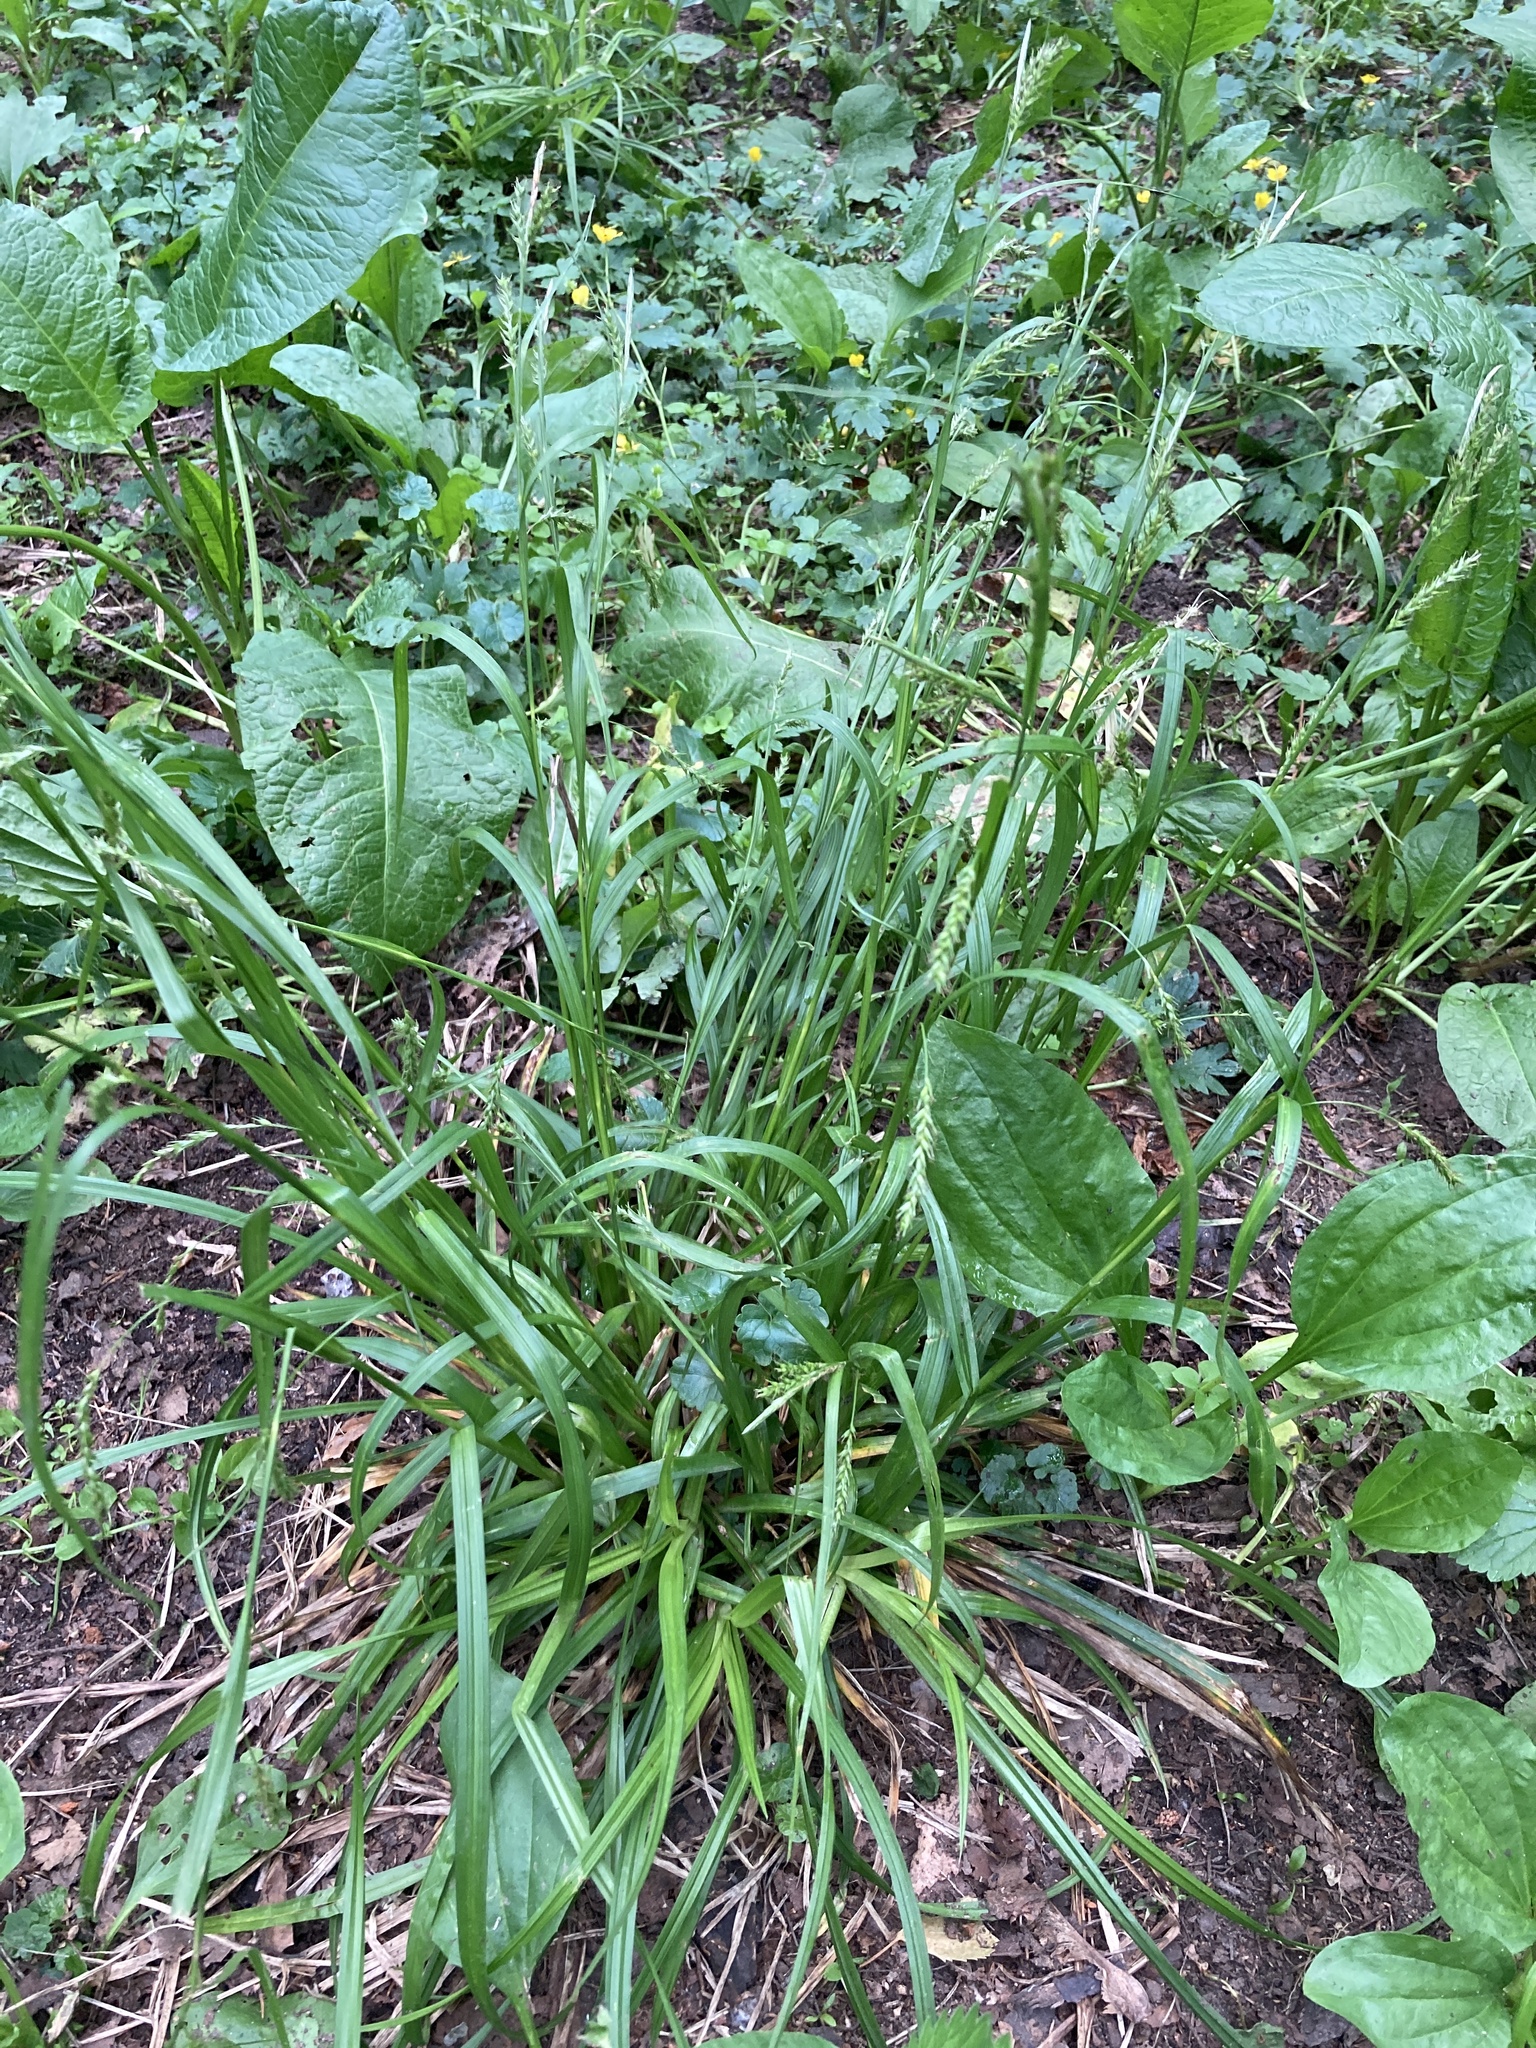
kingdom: Plantae
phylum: Tracheophyta
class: Liliopsida
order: Poales
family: Cyperaceae
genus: Carex
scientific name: Carex sylvatica
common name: Wood-sedge
